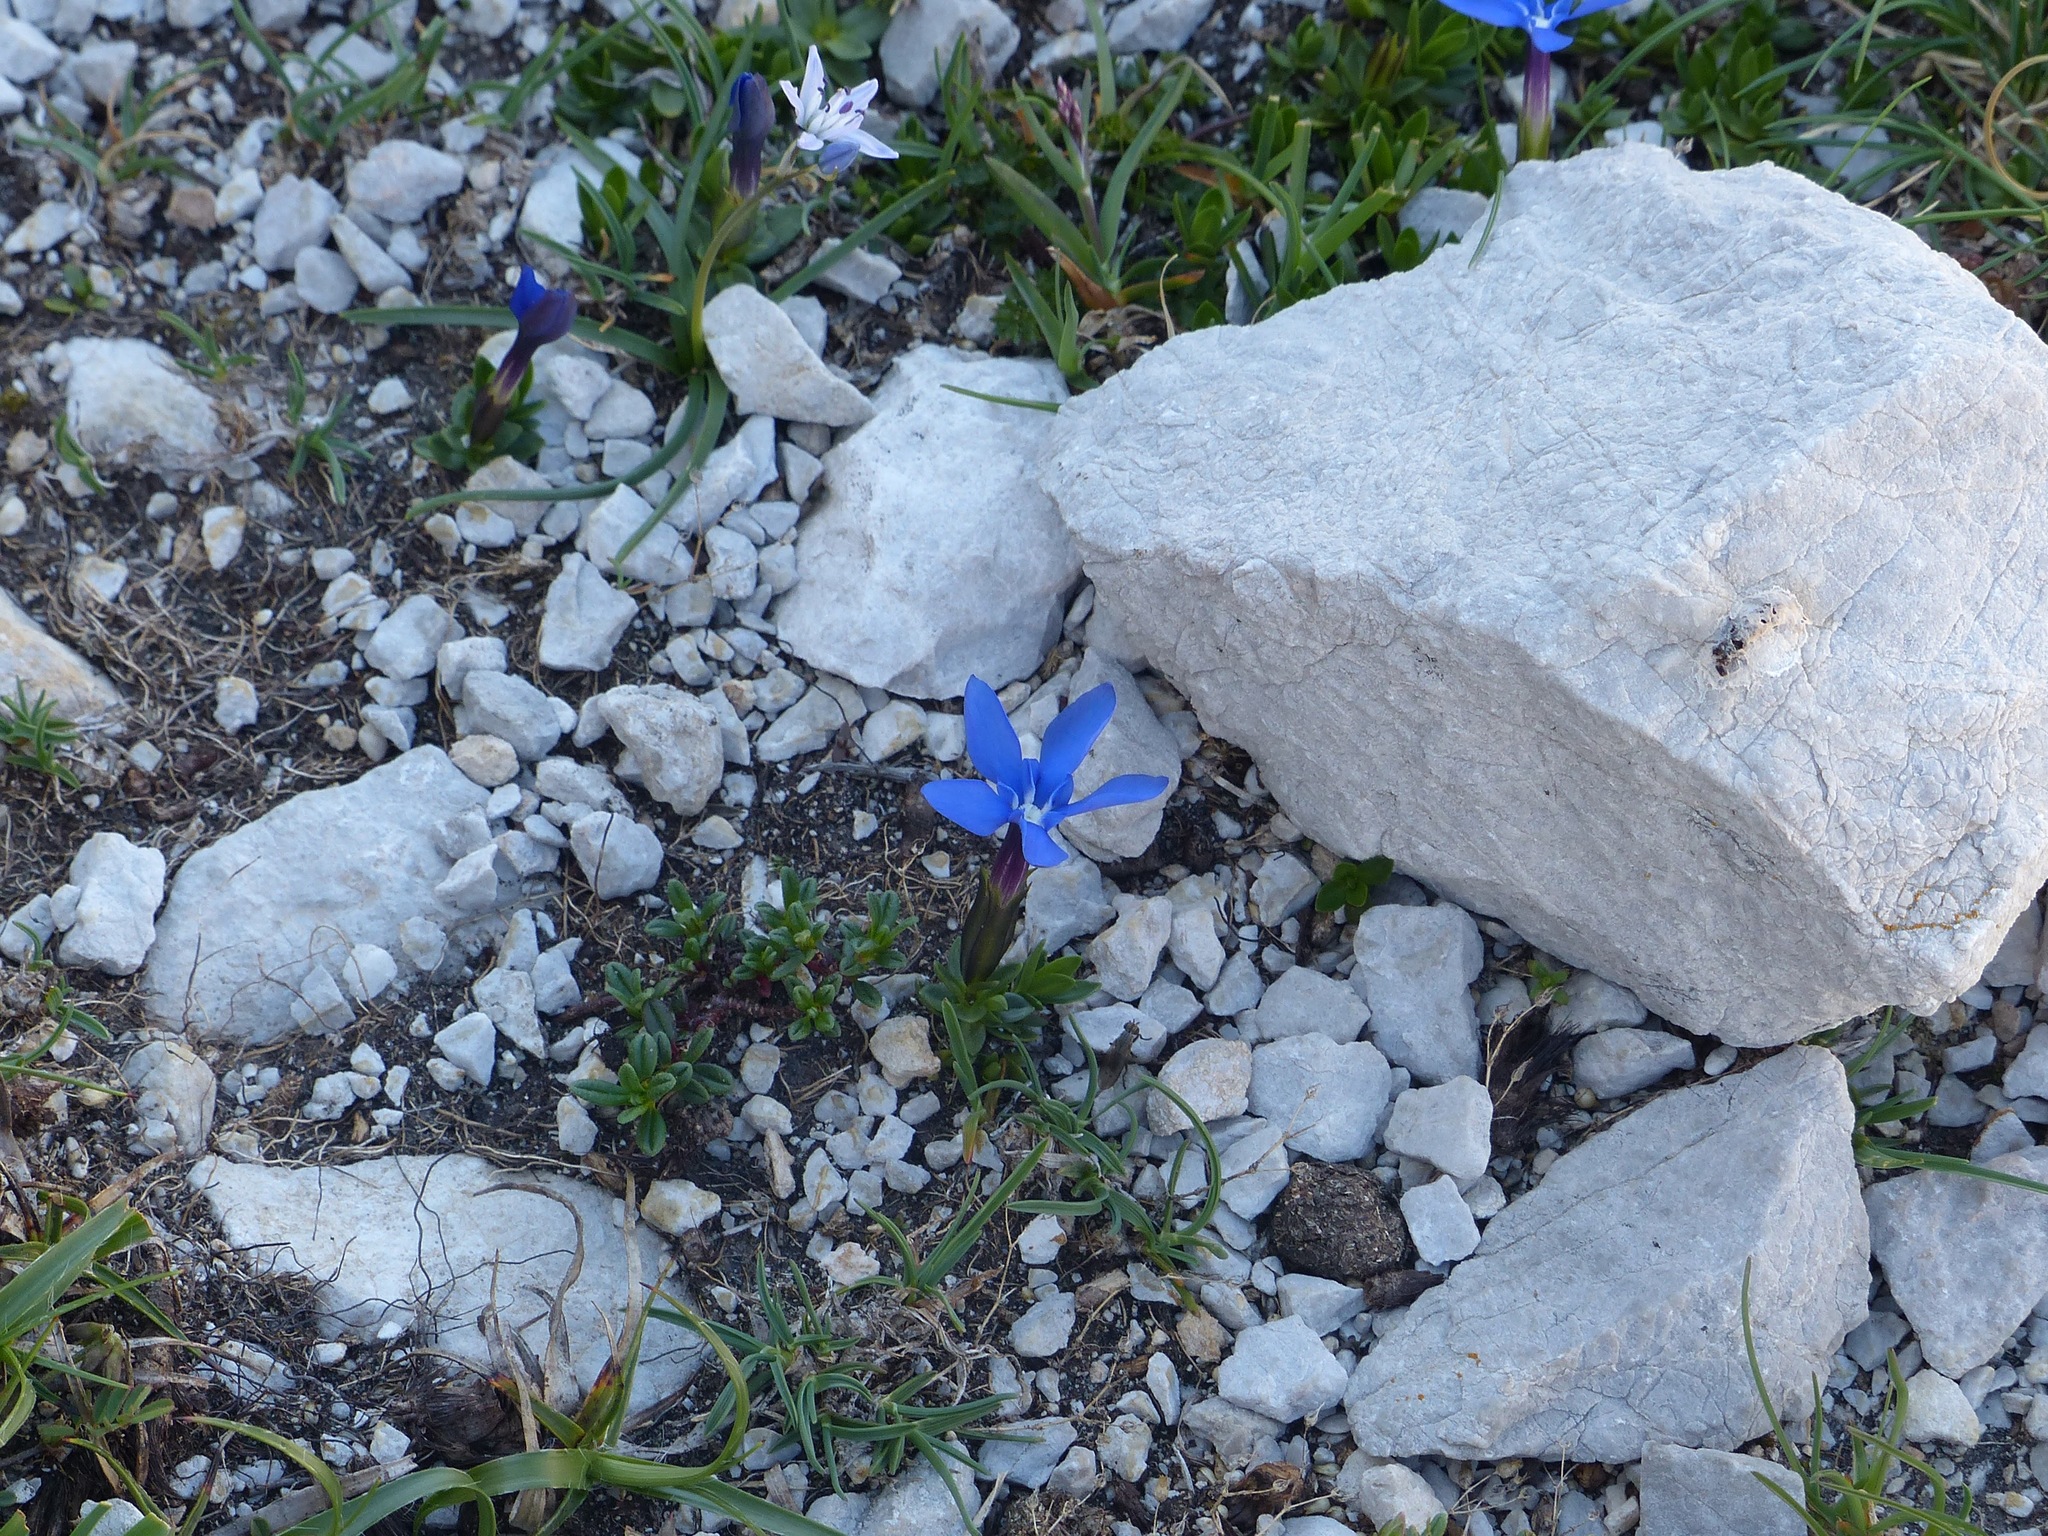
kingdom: Plantae
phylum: Tracheophyta
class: Magnoliopsida
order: Gentianales
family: Gentianaceae
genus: Gentiana
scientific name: Gentiana verna
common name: Spring gentian
